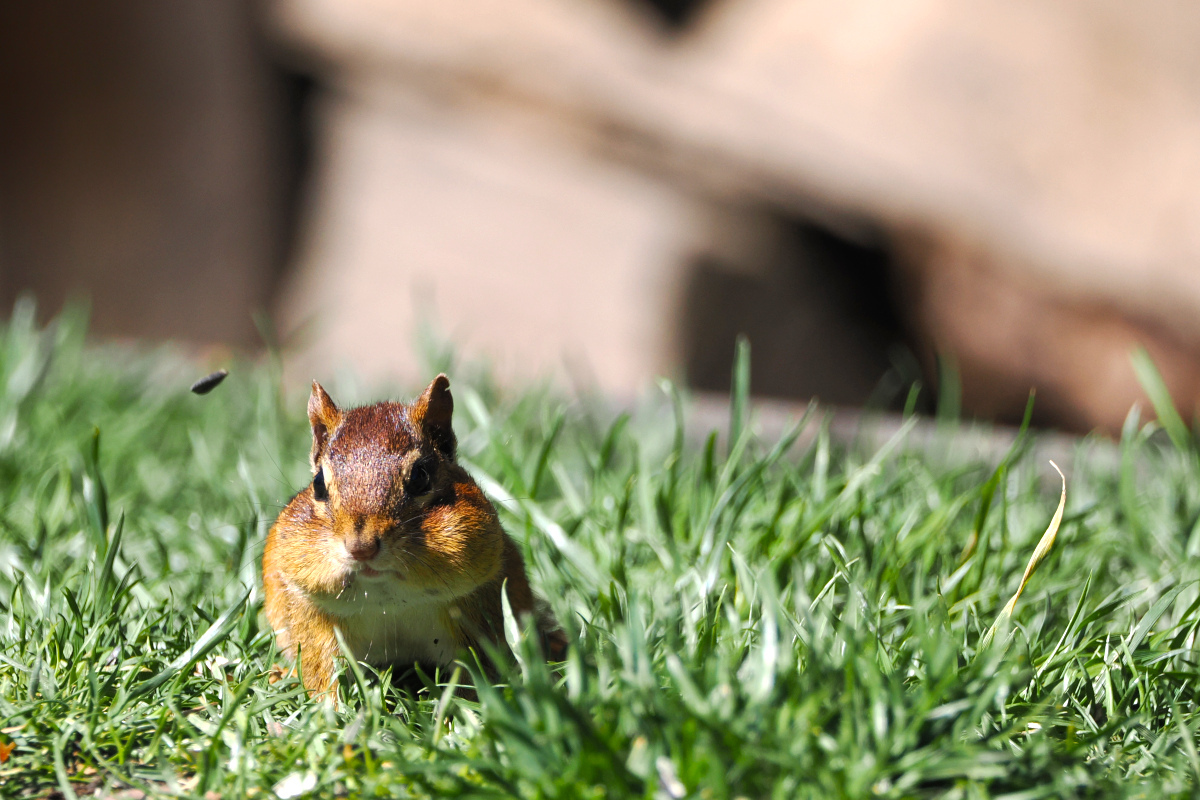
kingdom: Animalia
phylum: Chordata
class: Mammalia
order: Rodentia
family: Sciuridae
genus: Tamias
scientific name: Tamias striatus
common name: Eastern chipmunk
